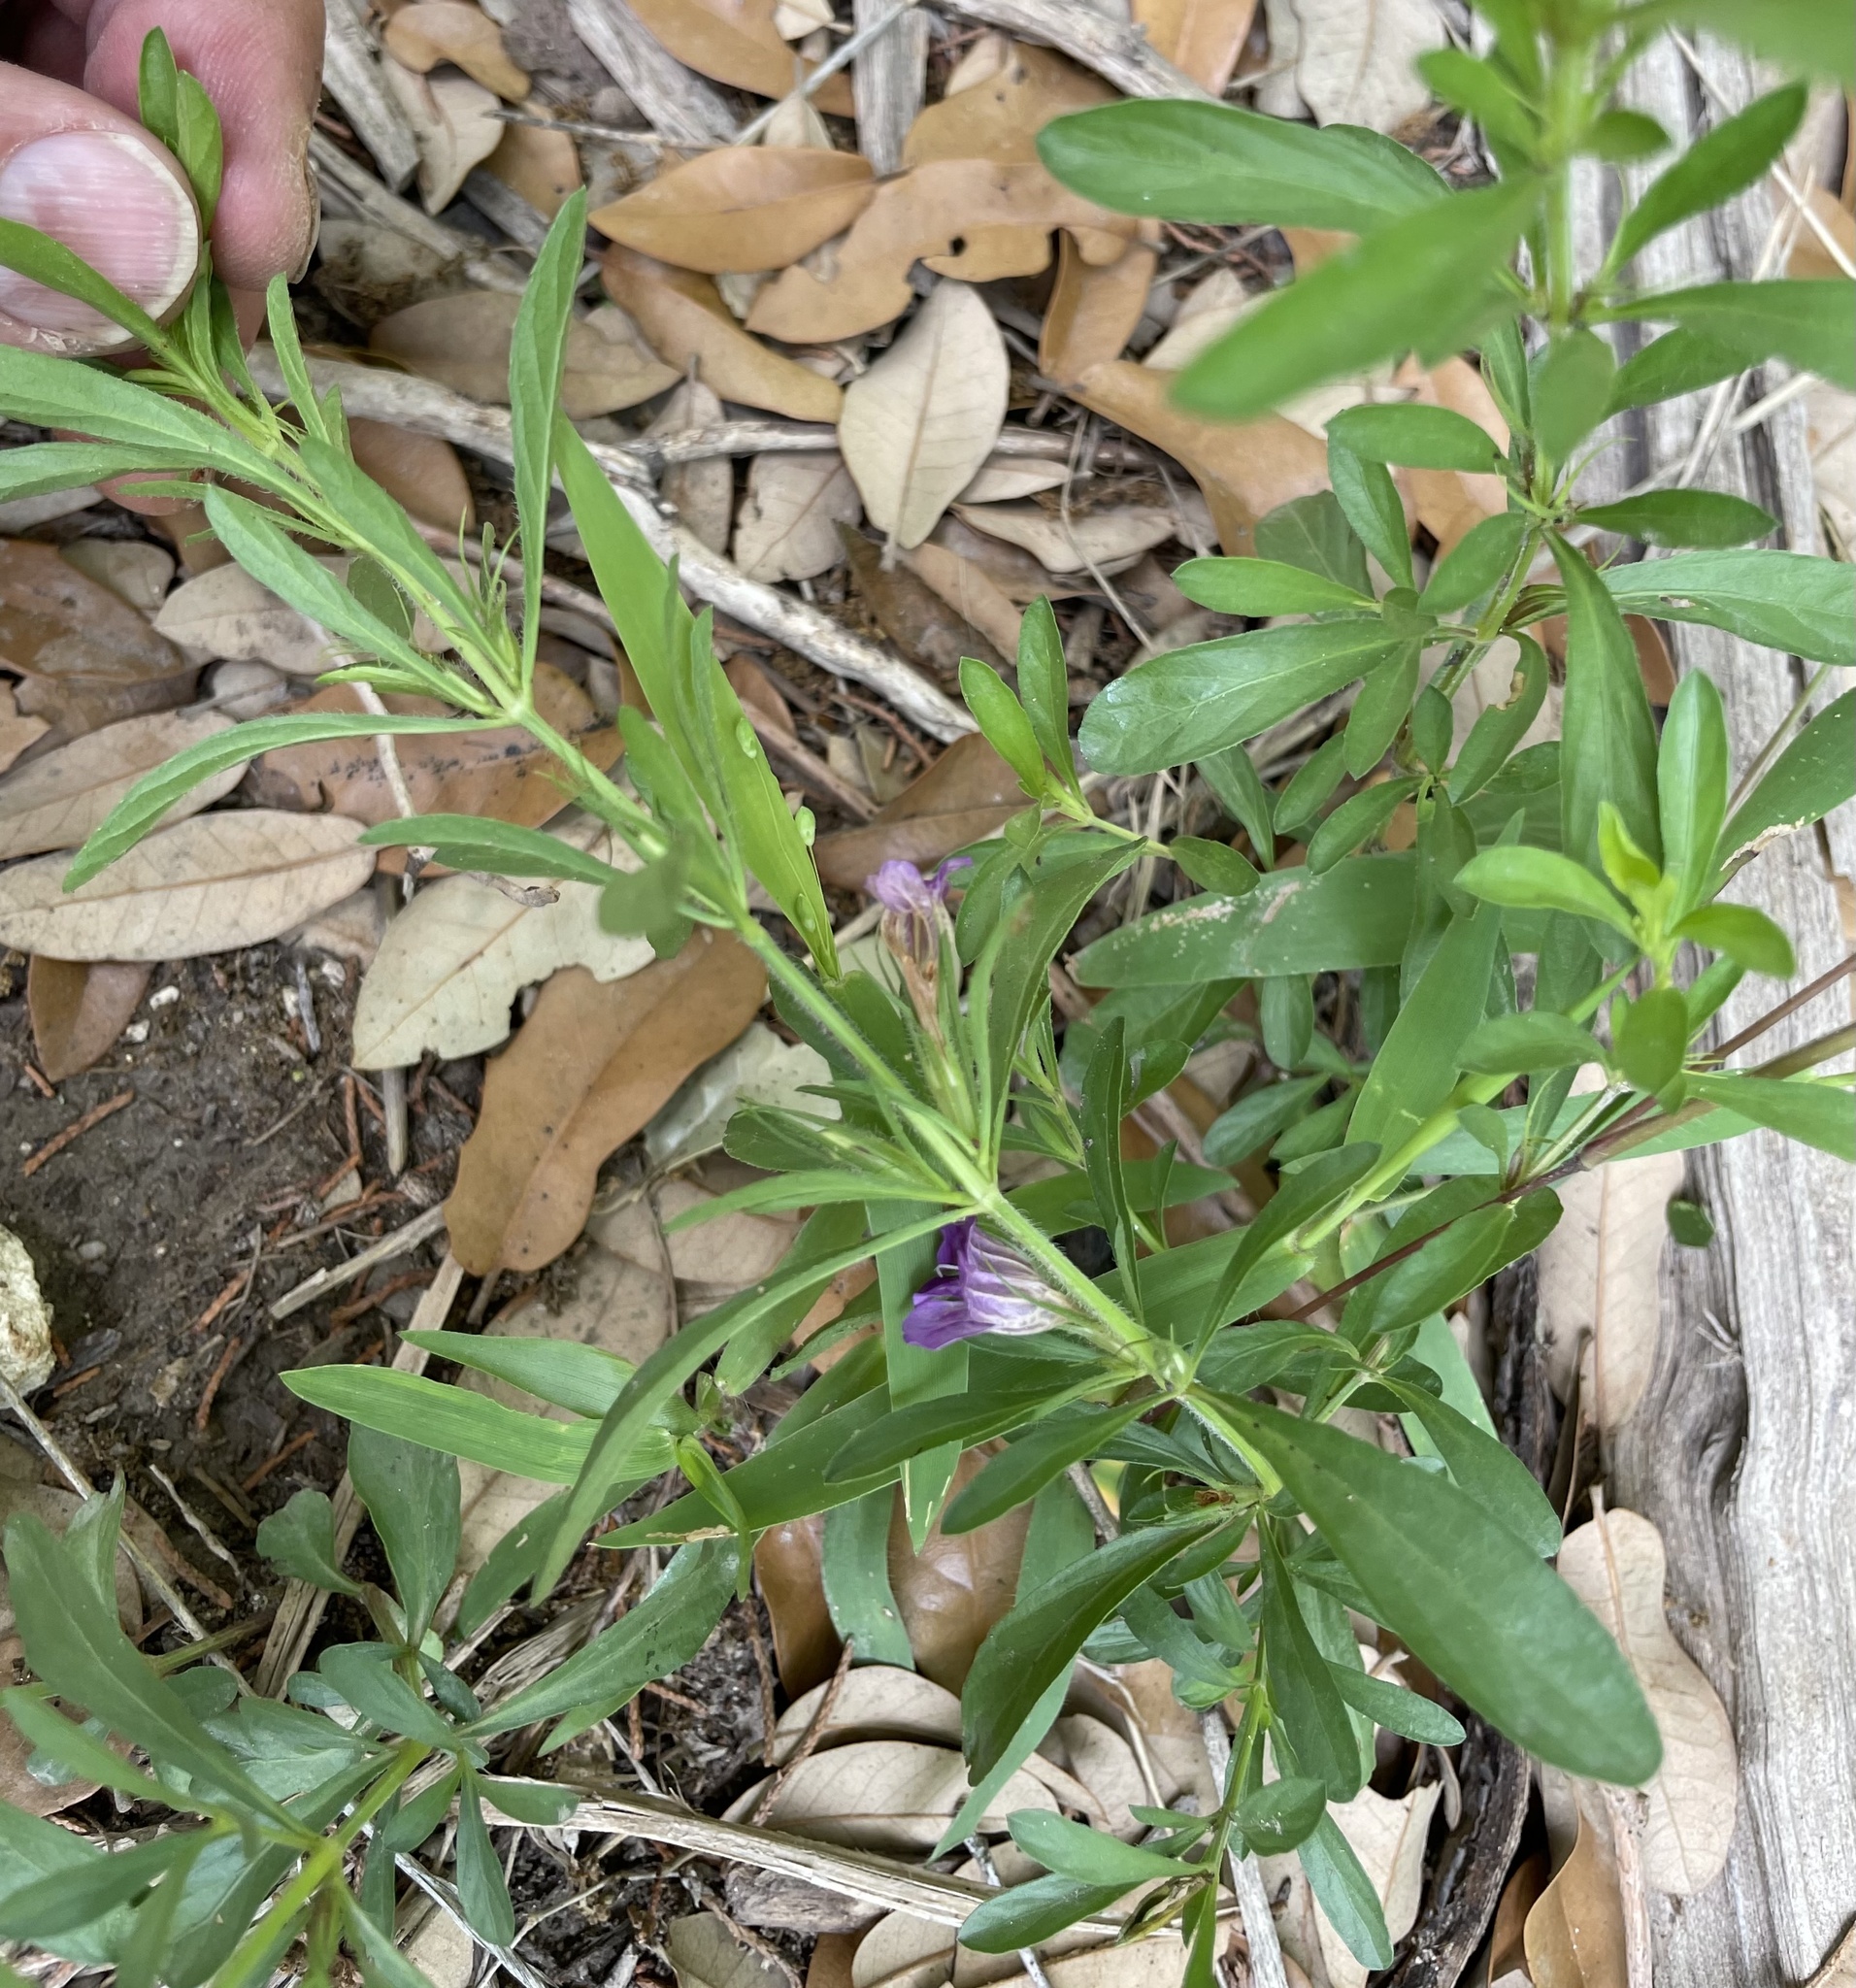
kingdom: Plantae
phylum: Tracheophyta
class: Magnoliopsida
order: Lamiales
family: Acanthaceae
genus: Dyschoriste
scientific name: Dyschoriste linearis
